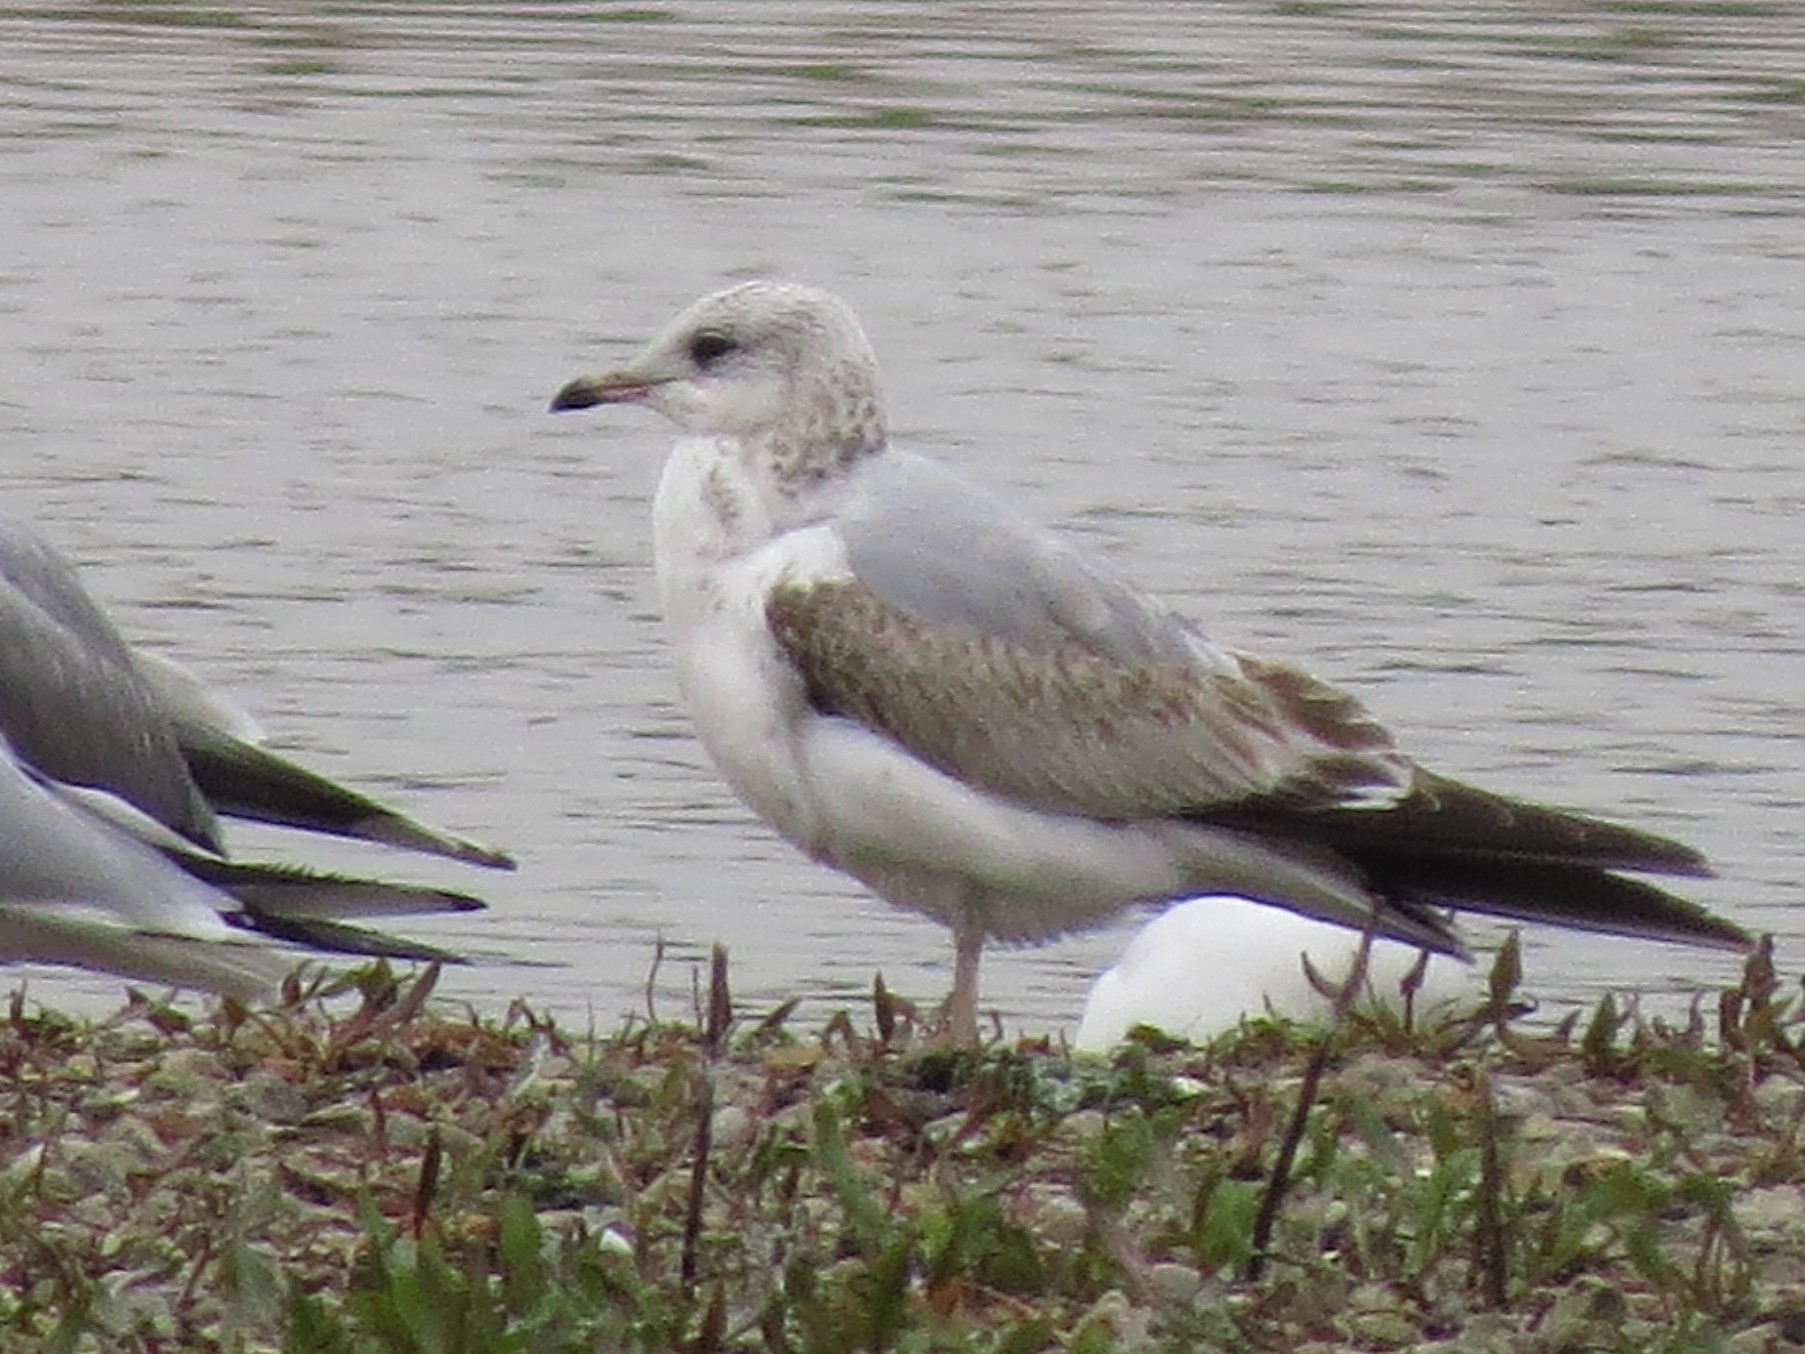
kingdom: Animalia
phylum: Chordata
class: Aves
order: Charadriiformes
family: Laridae
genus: Larus
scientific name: Larus canus
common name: Mew gull
